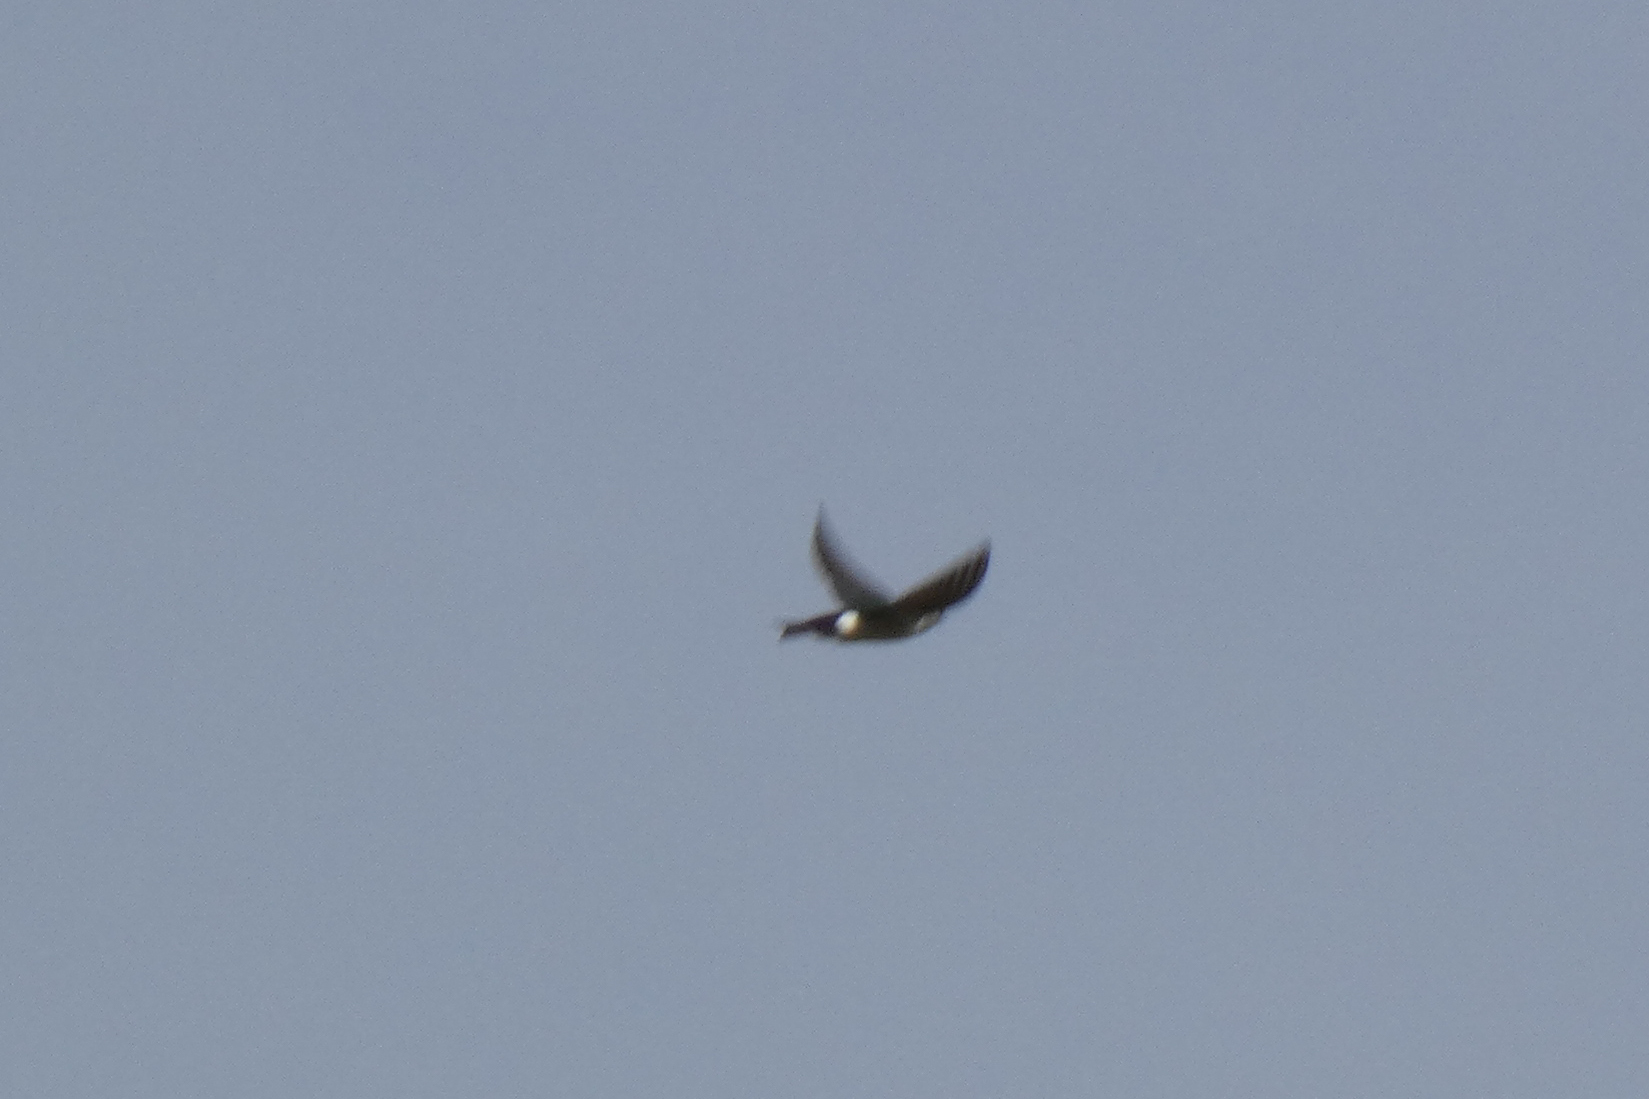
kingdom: Animalia
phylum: Chordata
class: Aves
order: Passeriformes
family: Hirundinidae
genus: Tachycineta
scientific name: Tachycineta thalassina
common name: Violet-green swallow
